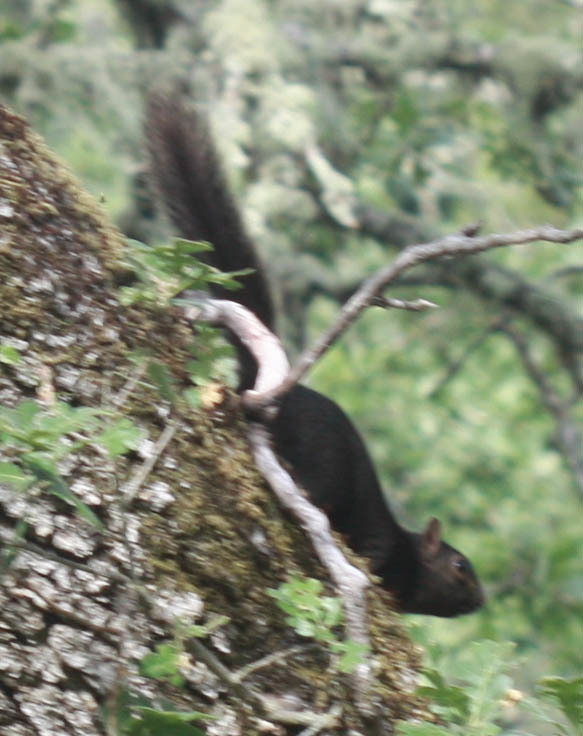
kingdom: Animalia
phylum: Chordata
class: Mammalia
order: Rodentia
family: Sciuridae
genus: Sciurus
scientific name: Sciurus carolinensis
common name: Eastern gray squirrel
